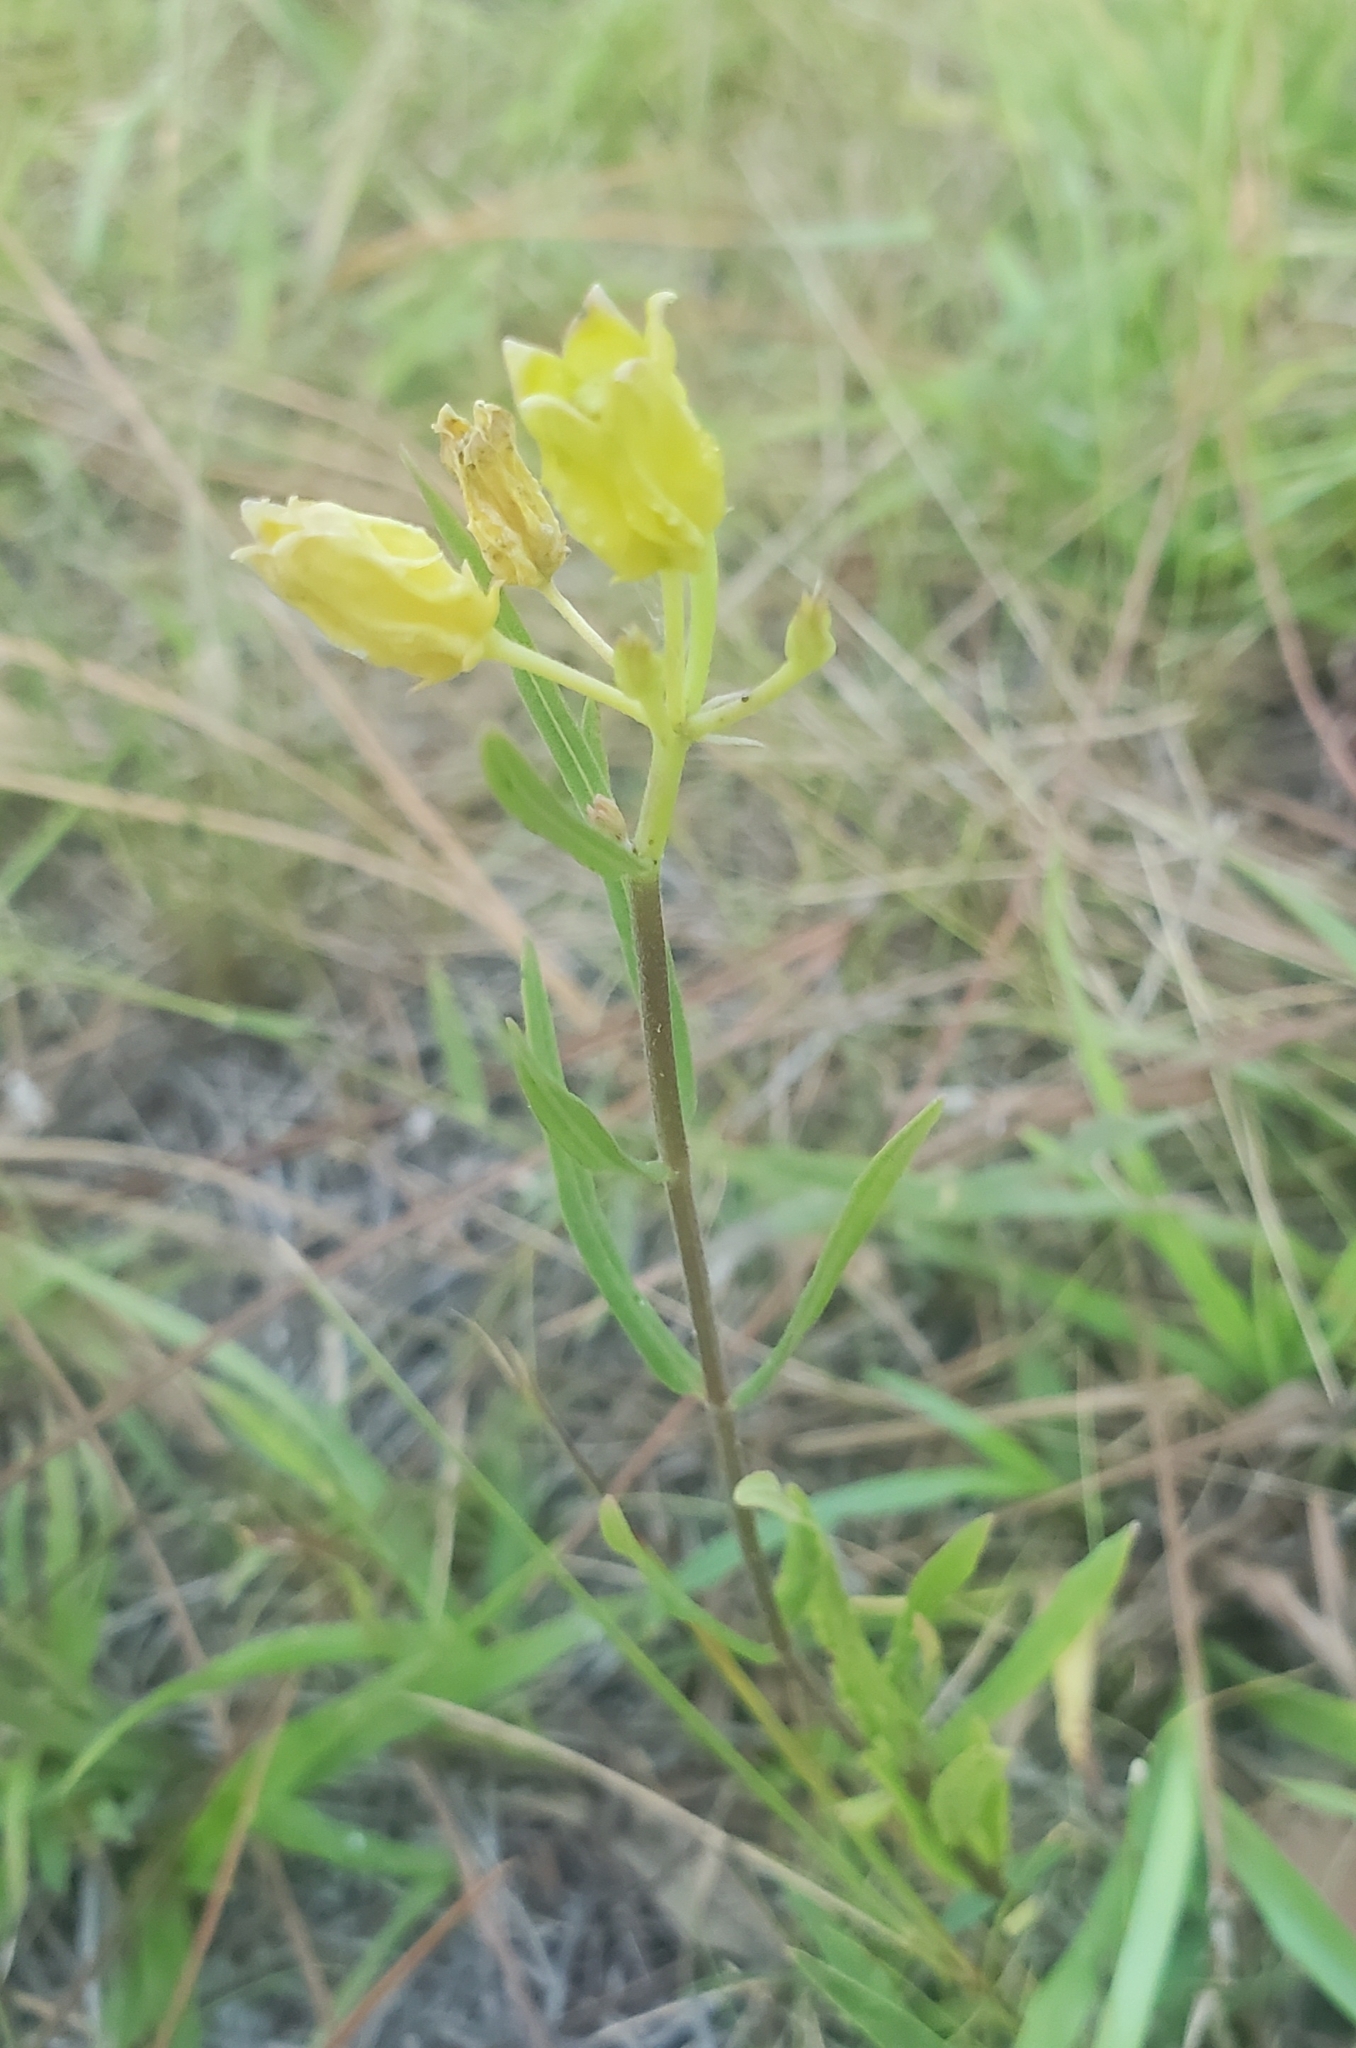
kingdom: Plantae
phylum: Tracheophyta
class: Magnoliopsida
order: Gentianales
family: Apocynaceae
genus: Asclepias
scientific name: Asclepias pedicellata
